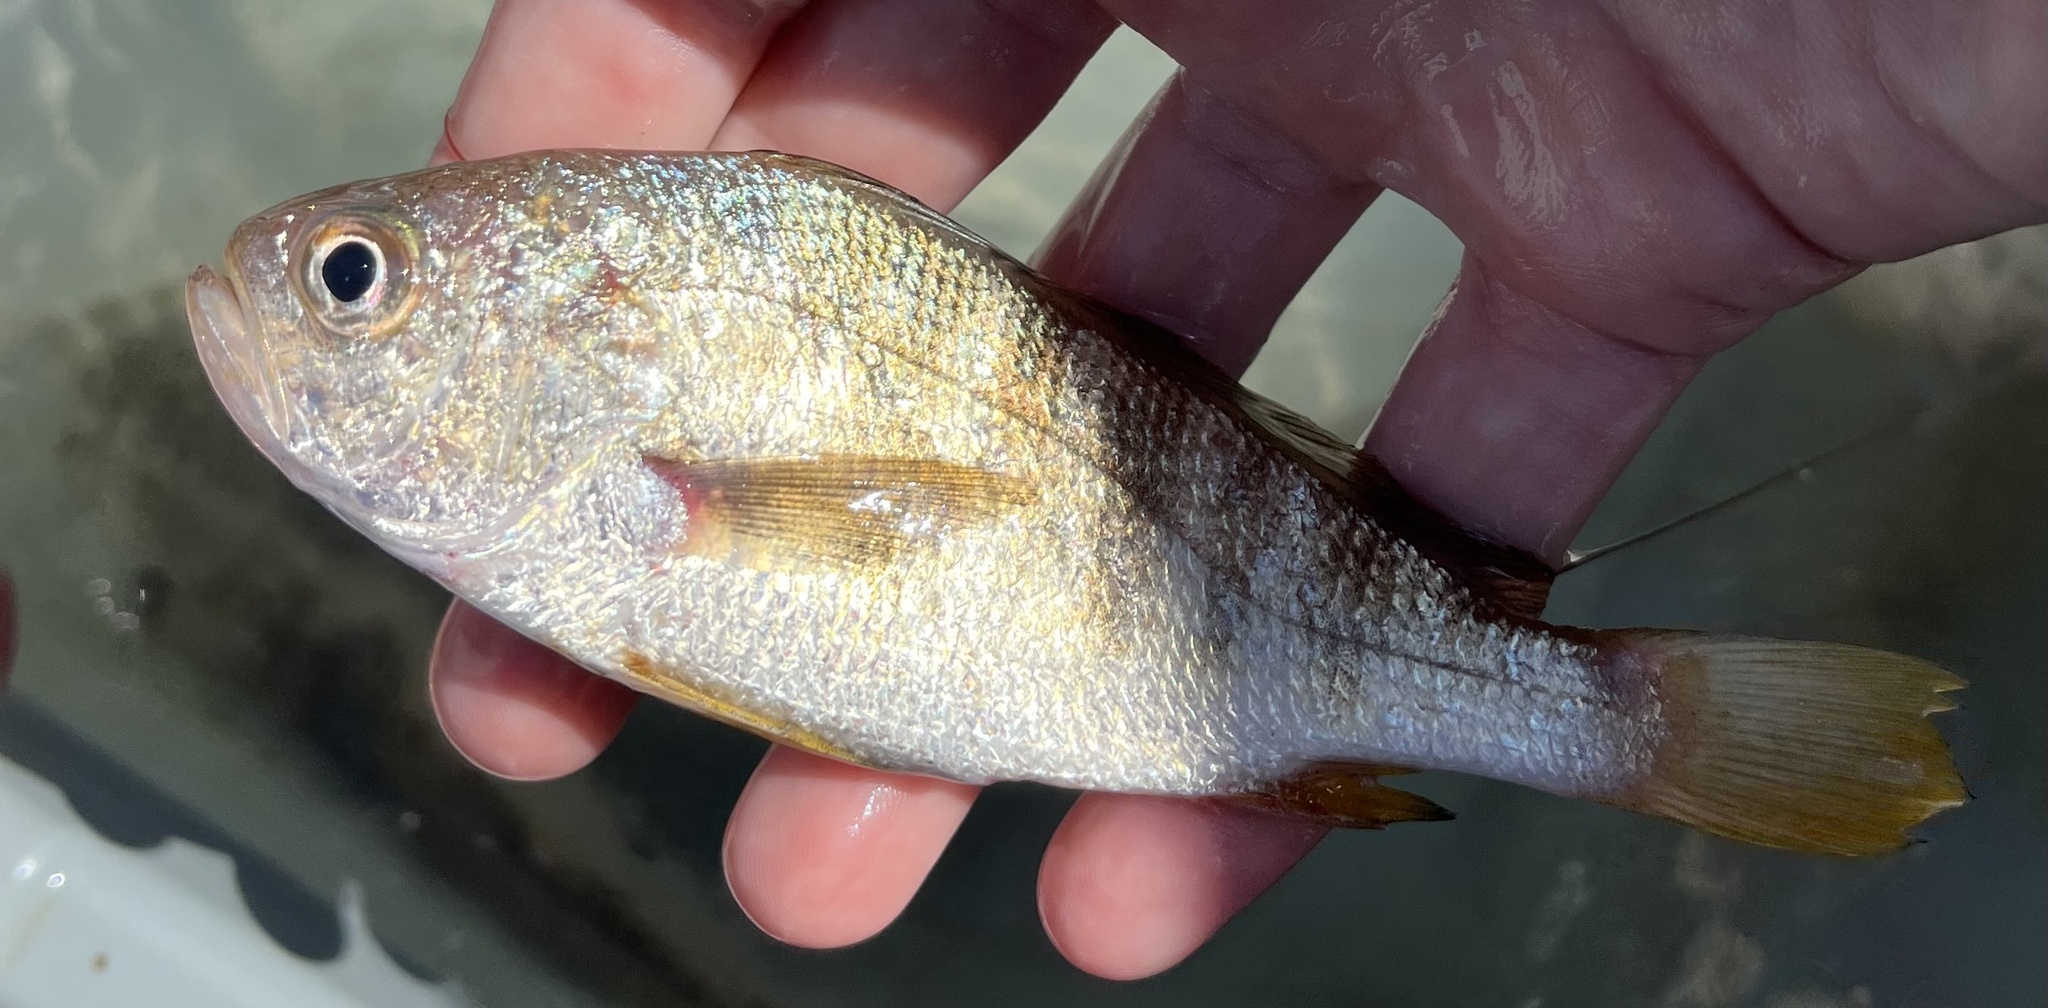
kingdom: Animalia
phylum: Chordata
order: Perciformes
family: Sciaenidae
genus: Larimus
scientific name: Larimus fasciatus
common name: Banded drum
